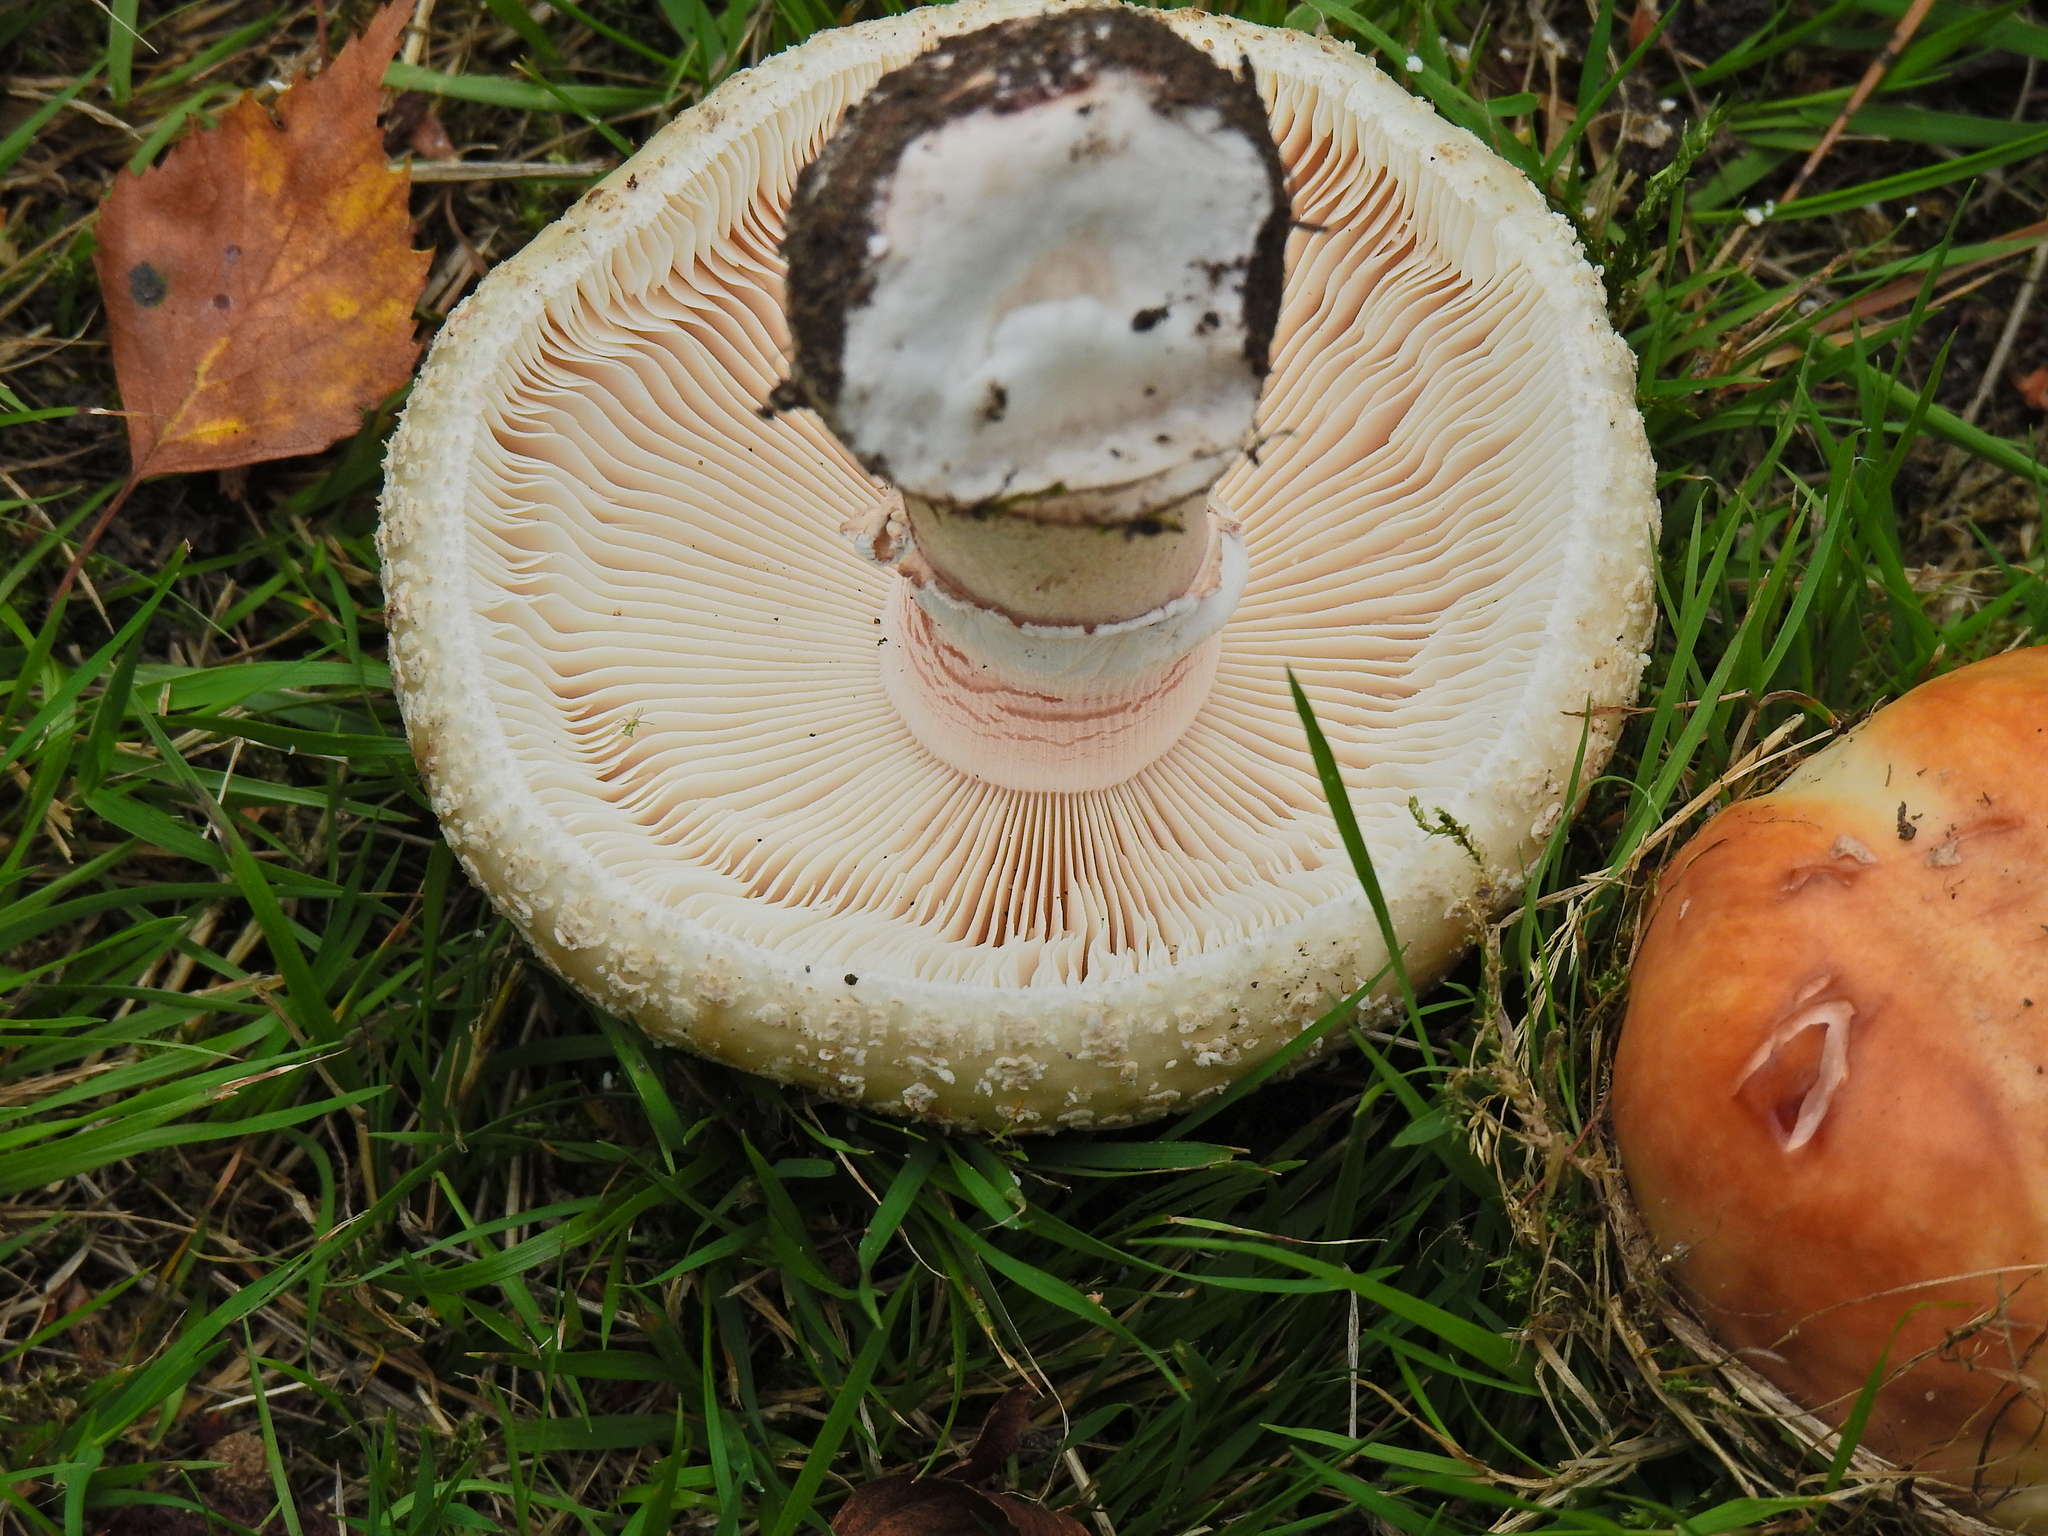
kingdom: Fungi
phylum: Basidiomycota
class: Agaricomycetes
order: Agaricales
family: Amanitaceae
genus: Amanita
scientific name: Amanita rubescens
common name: Blusher
